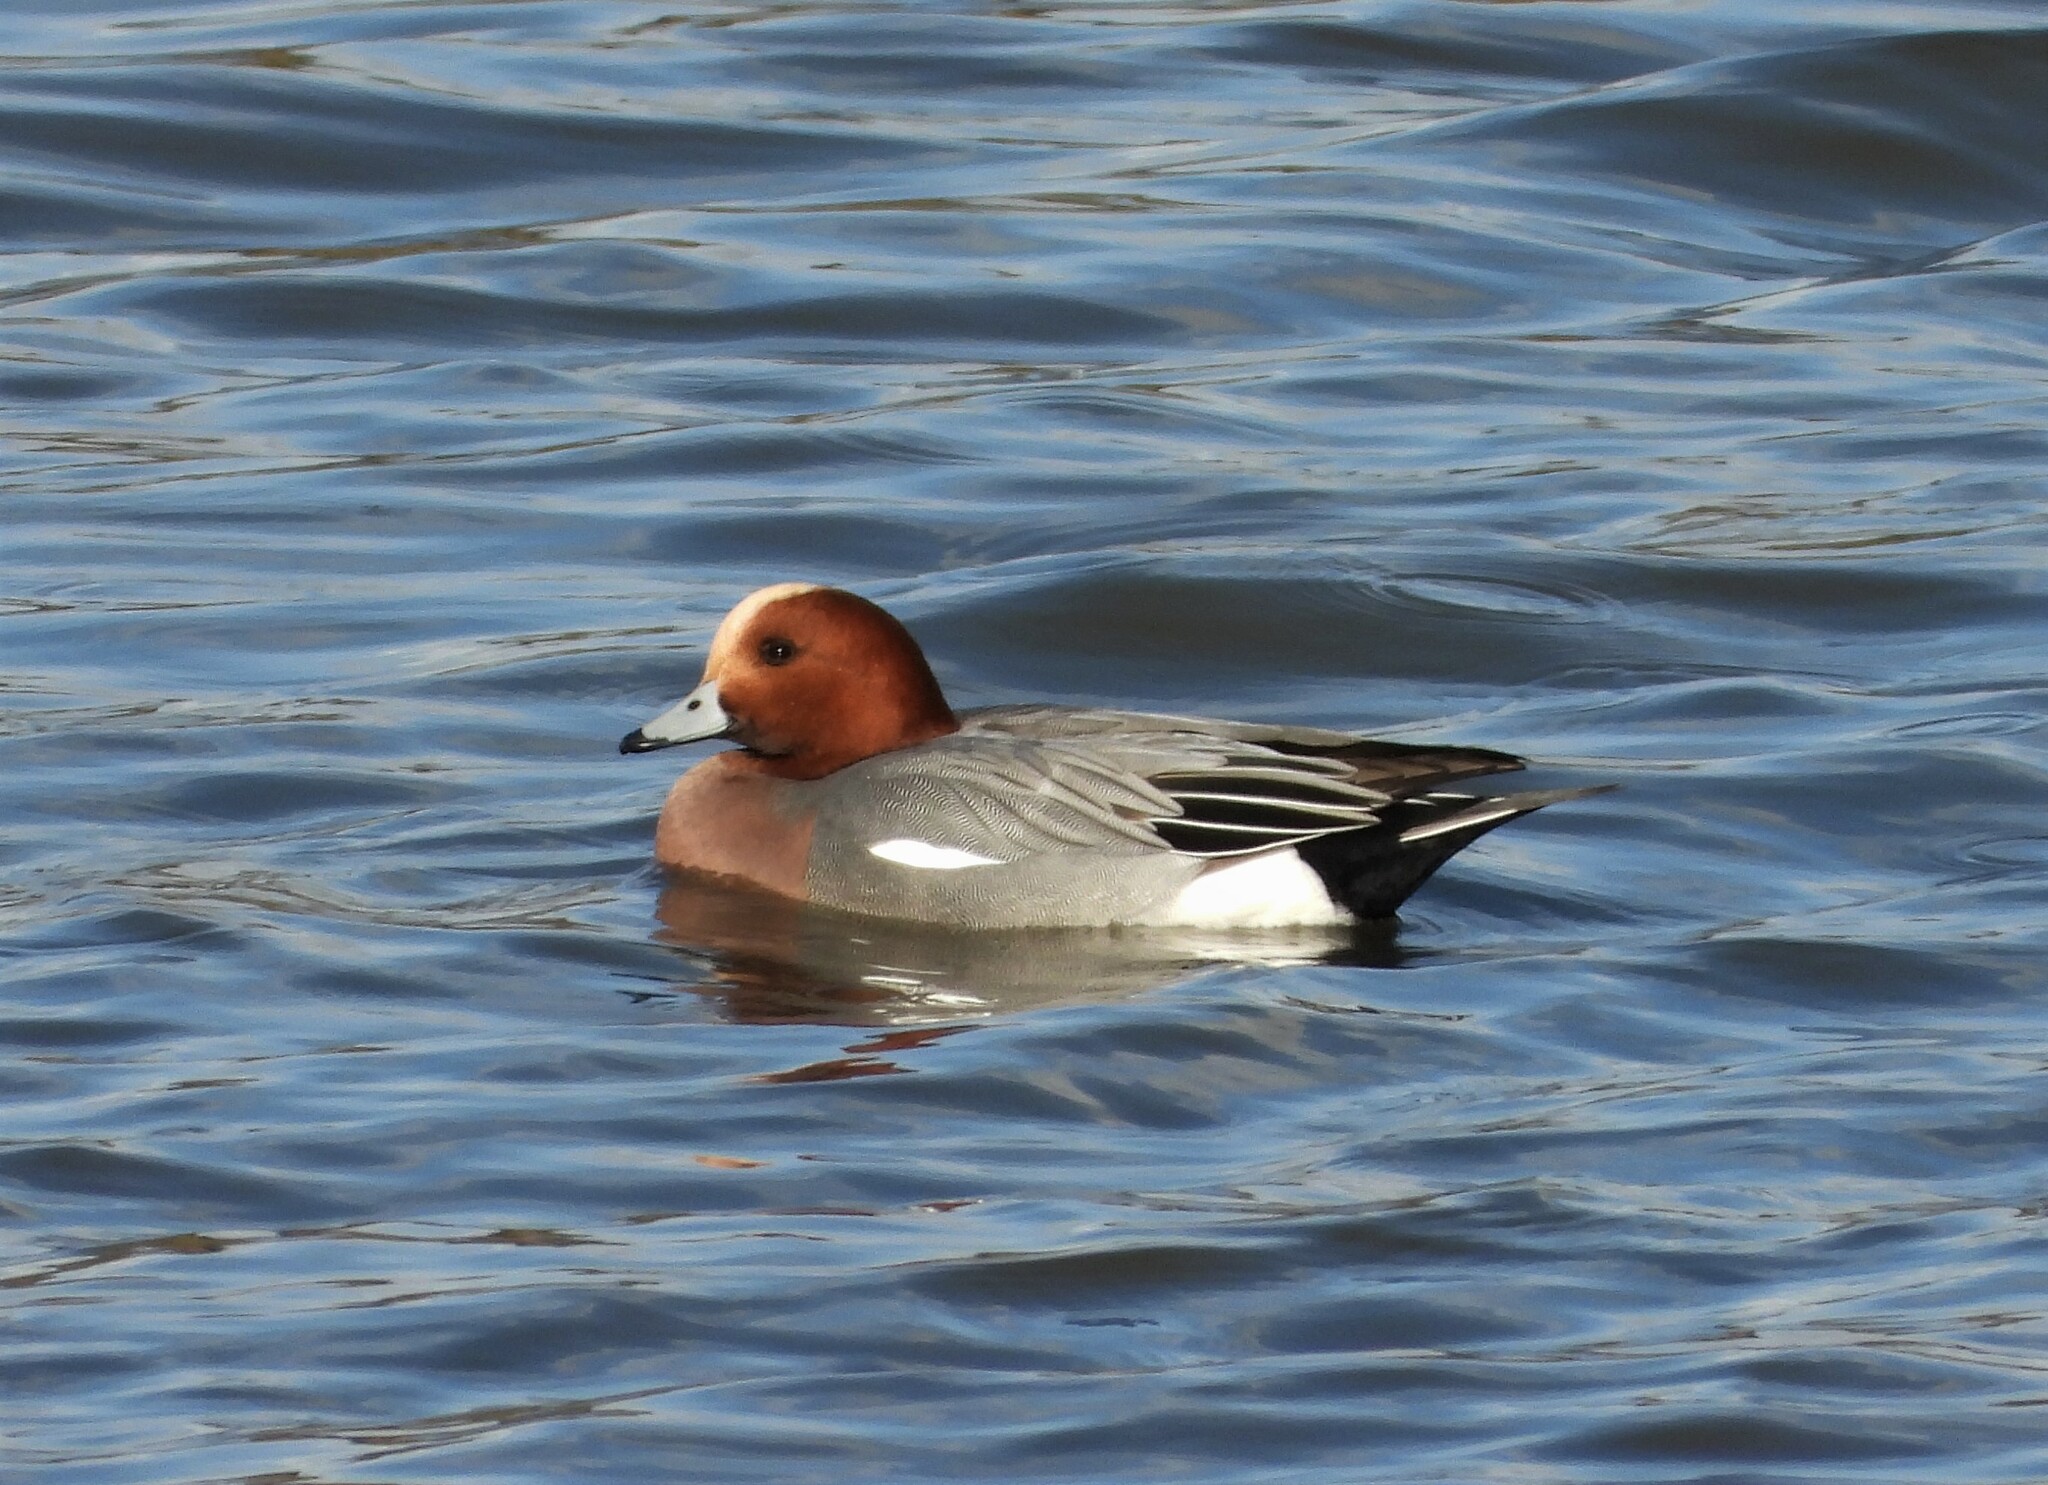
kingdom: Animalia
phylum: Chordata
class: Aves
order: Anseriformes
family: Anatidae
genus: Mareca
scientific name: Mareca penelope
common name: Eurasian wigeon
